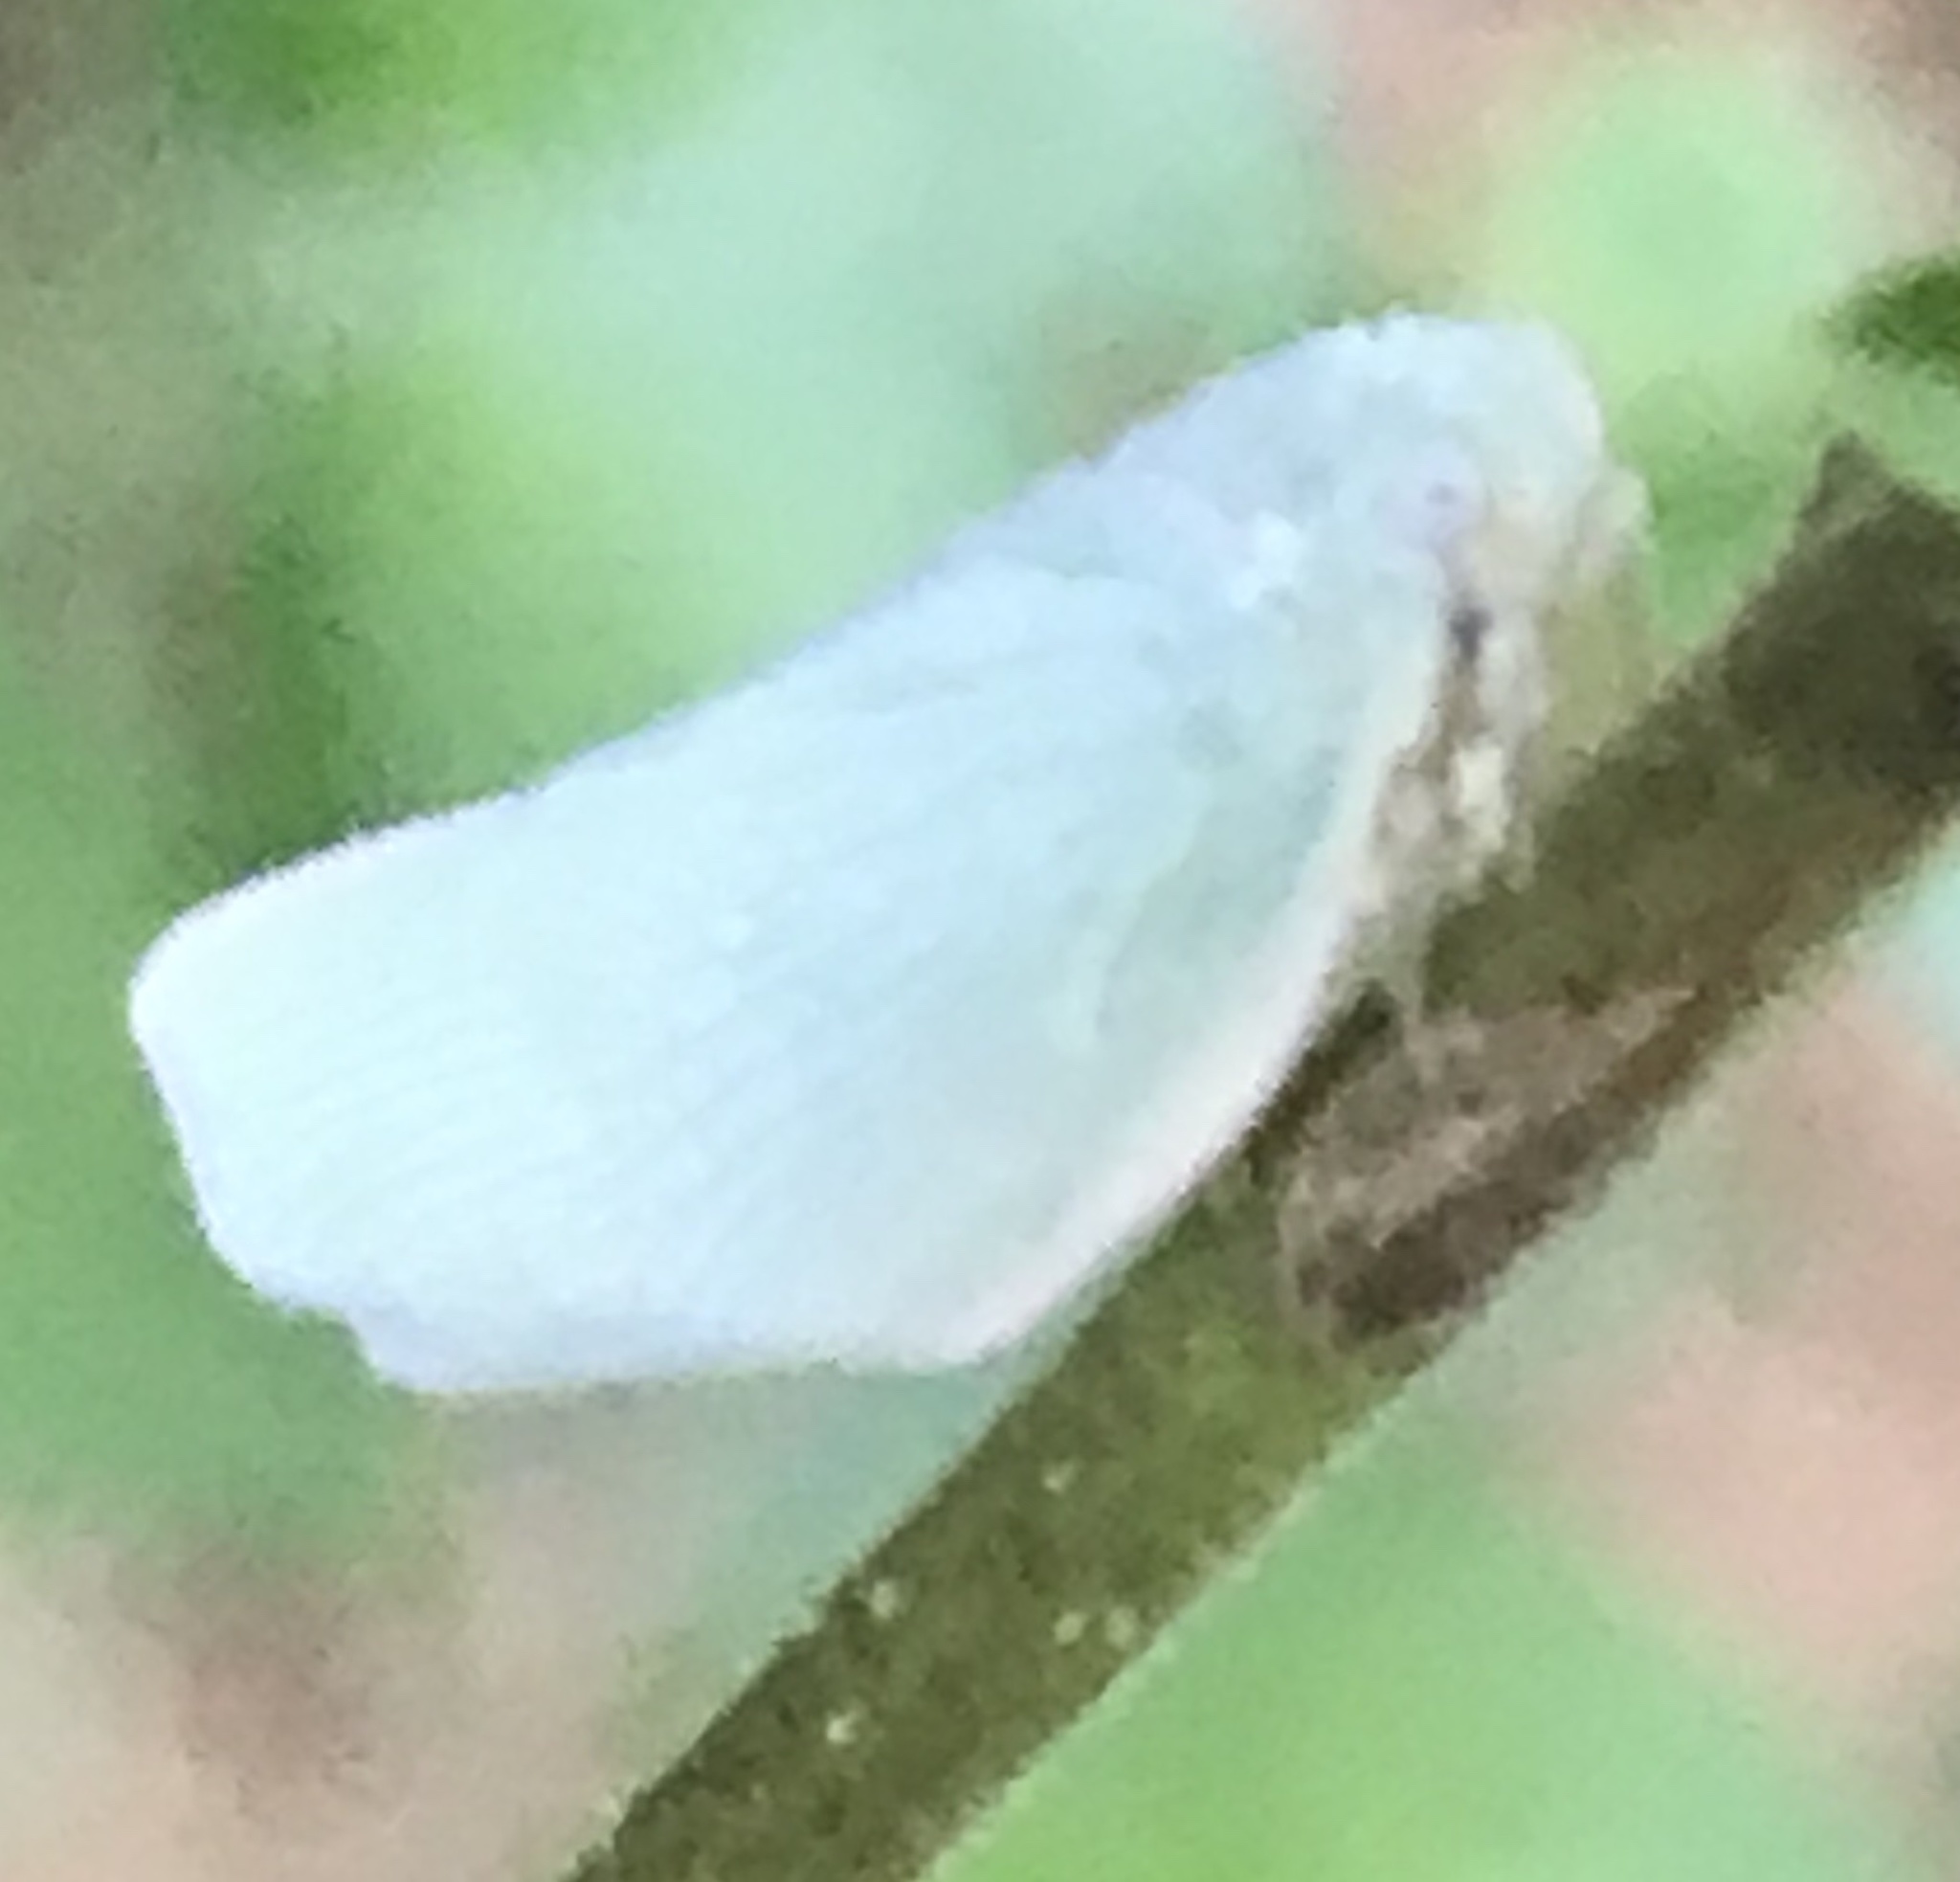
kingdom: Animalia
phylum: Arthropoda
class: Insecta
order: Hemiptera
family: Flatidae
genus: Flatormenis
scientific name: Flatormenis proxima
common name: Northern flatid planthopper
